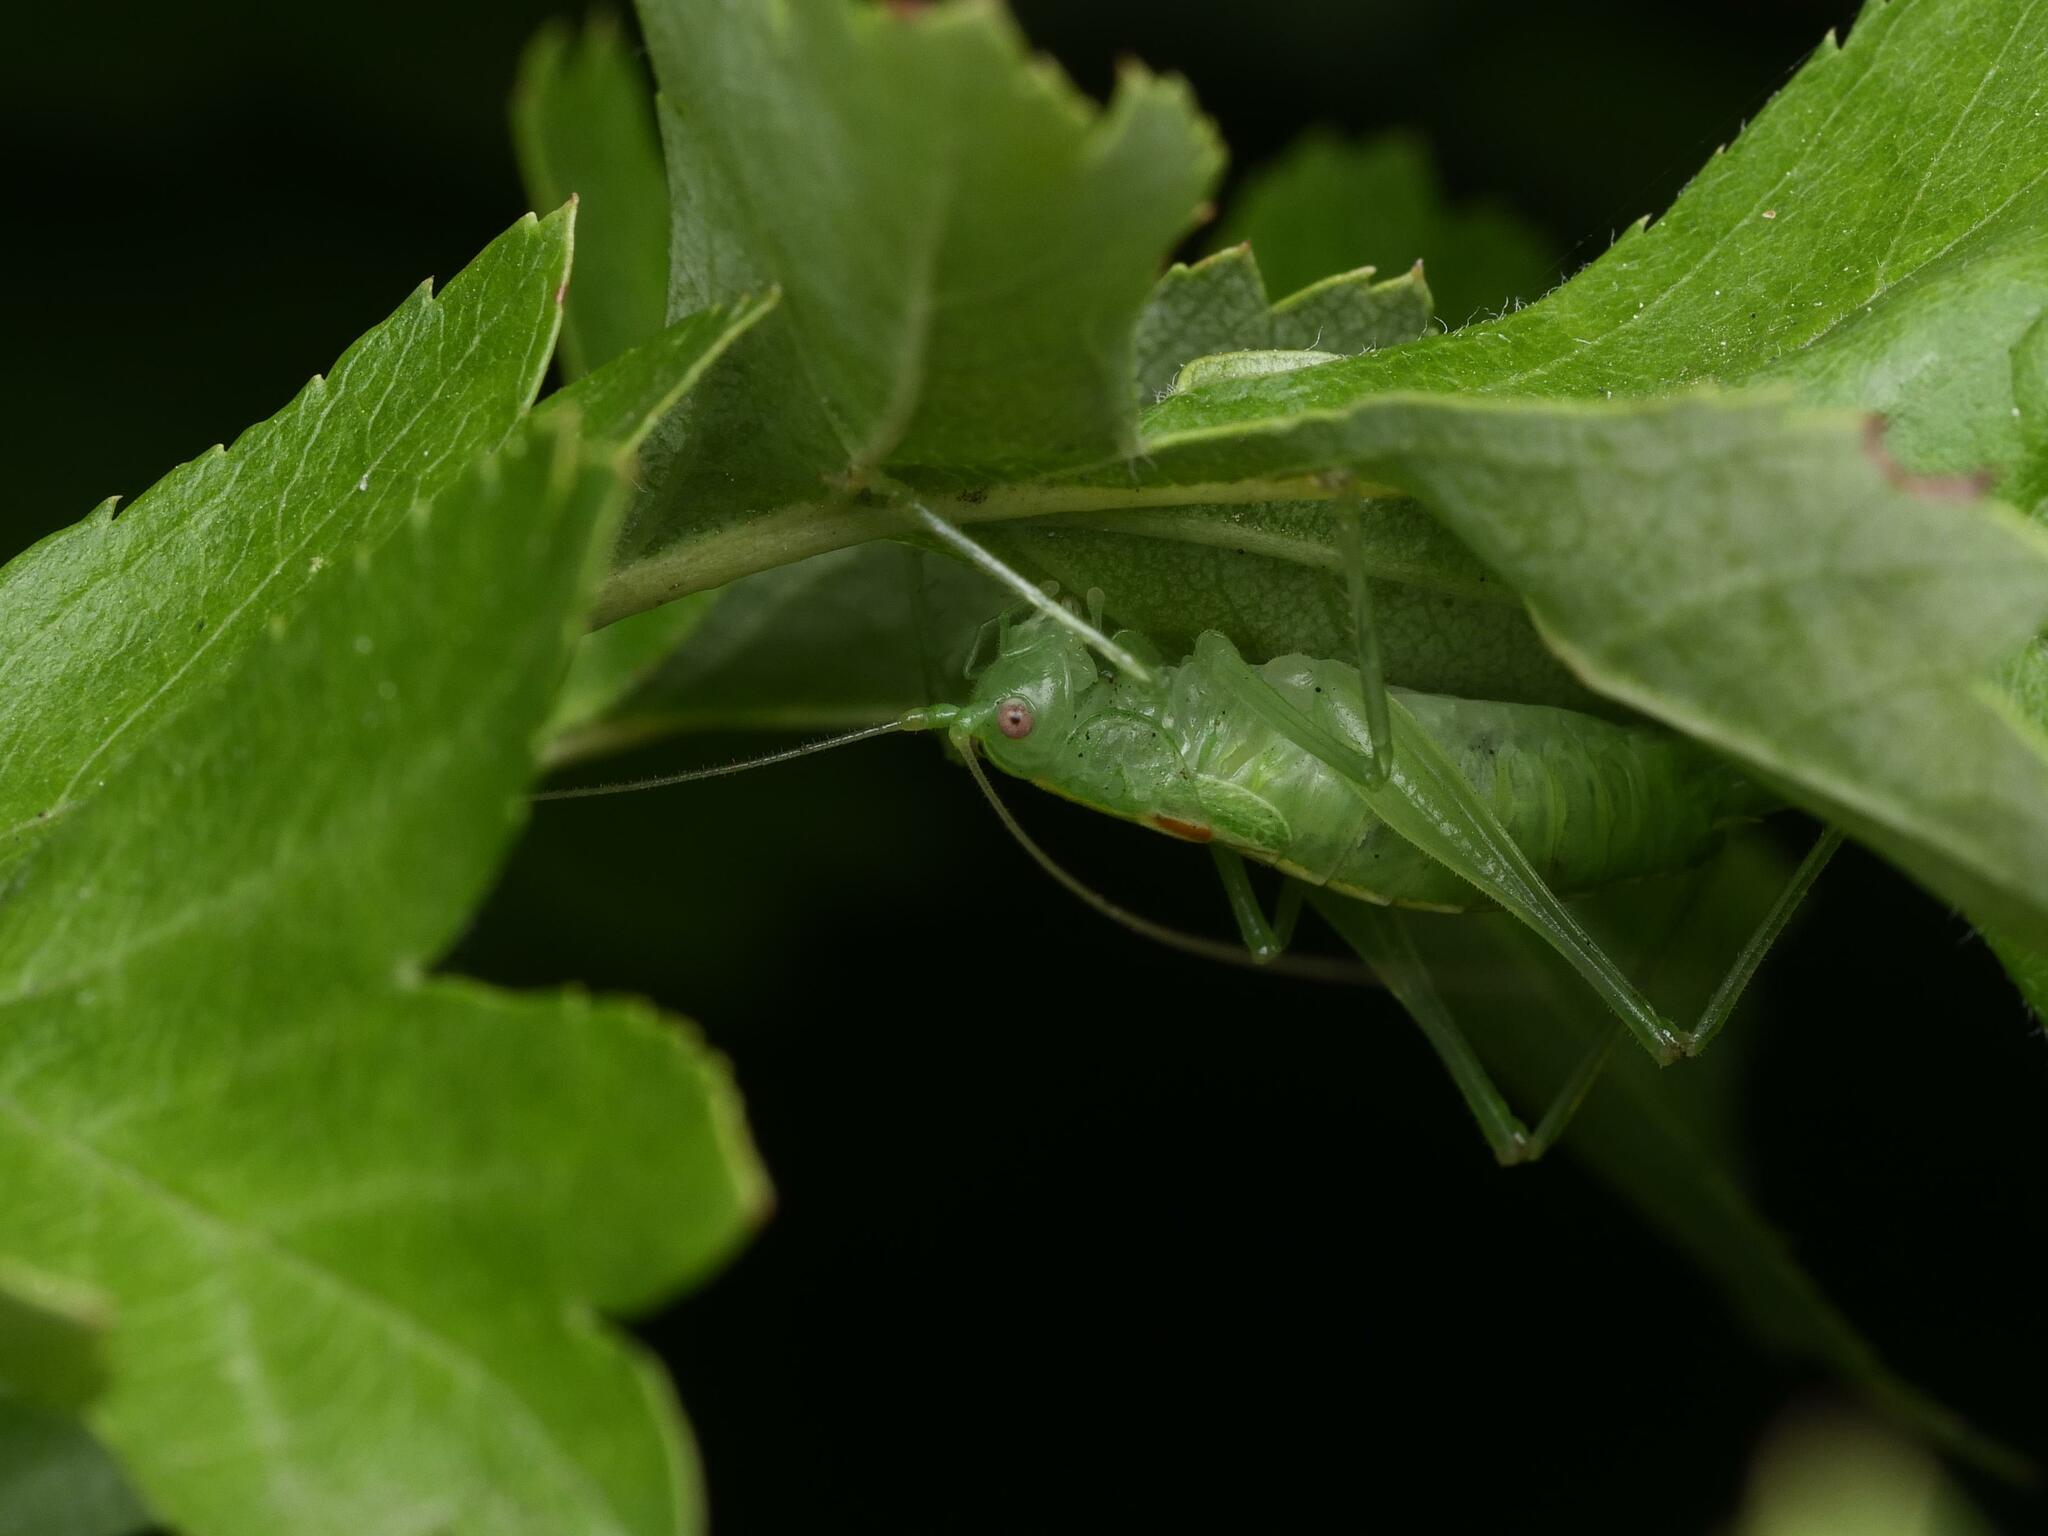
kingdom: Animalia
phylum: Arthropoda
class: Insecta
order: Orthoptera
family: Tettigoniidae
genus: Meconema
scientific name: Meconema meridionale
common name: Southern oak bush-cricket
